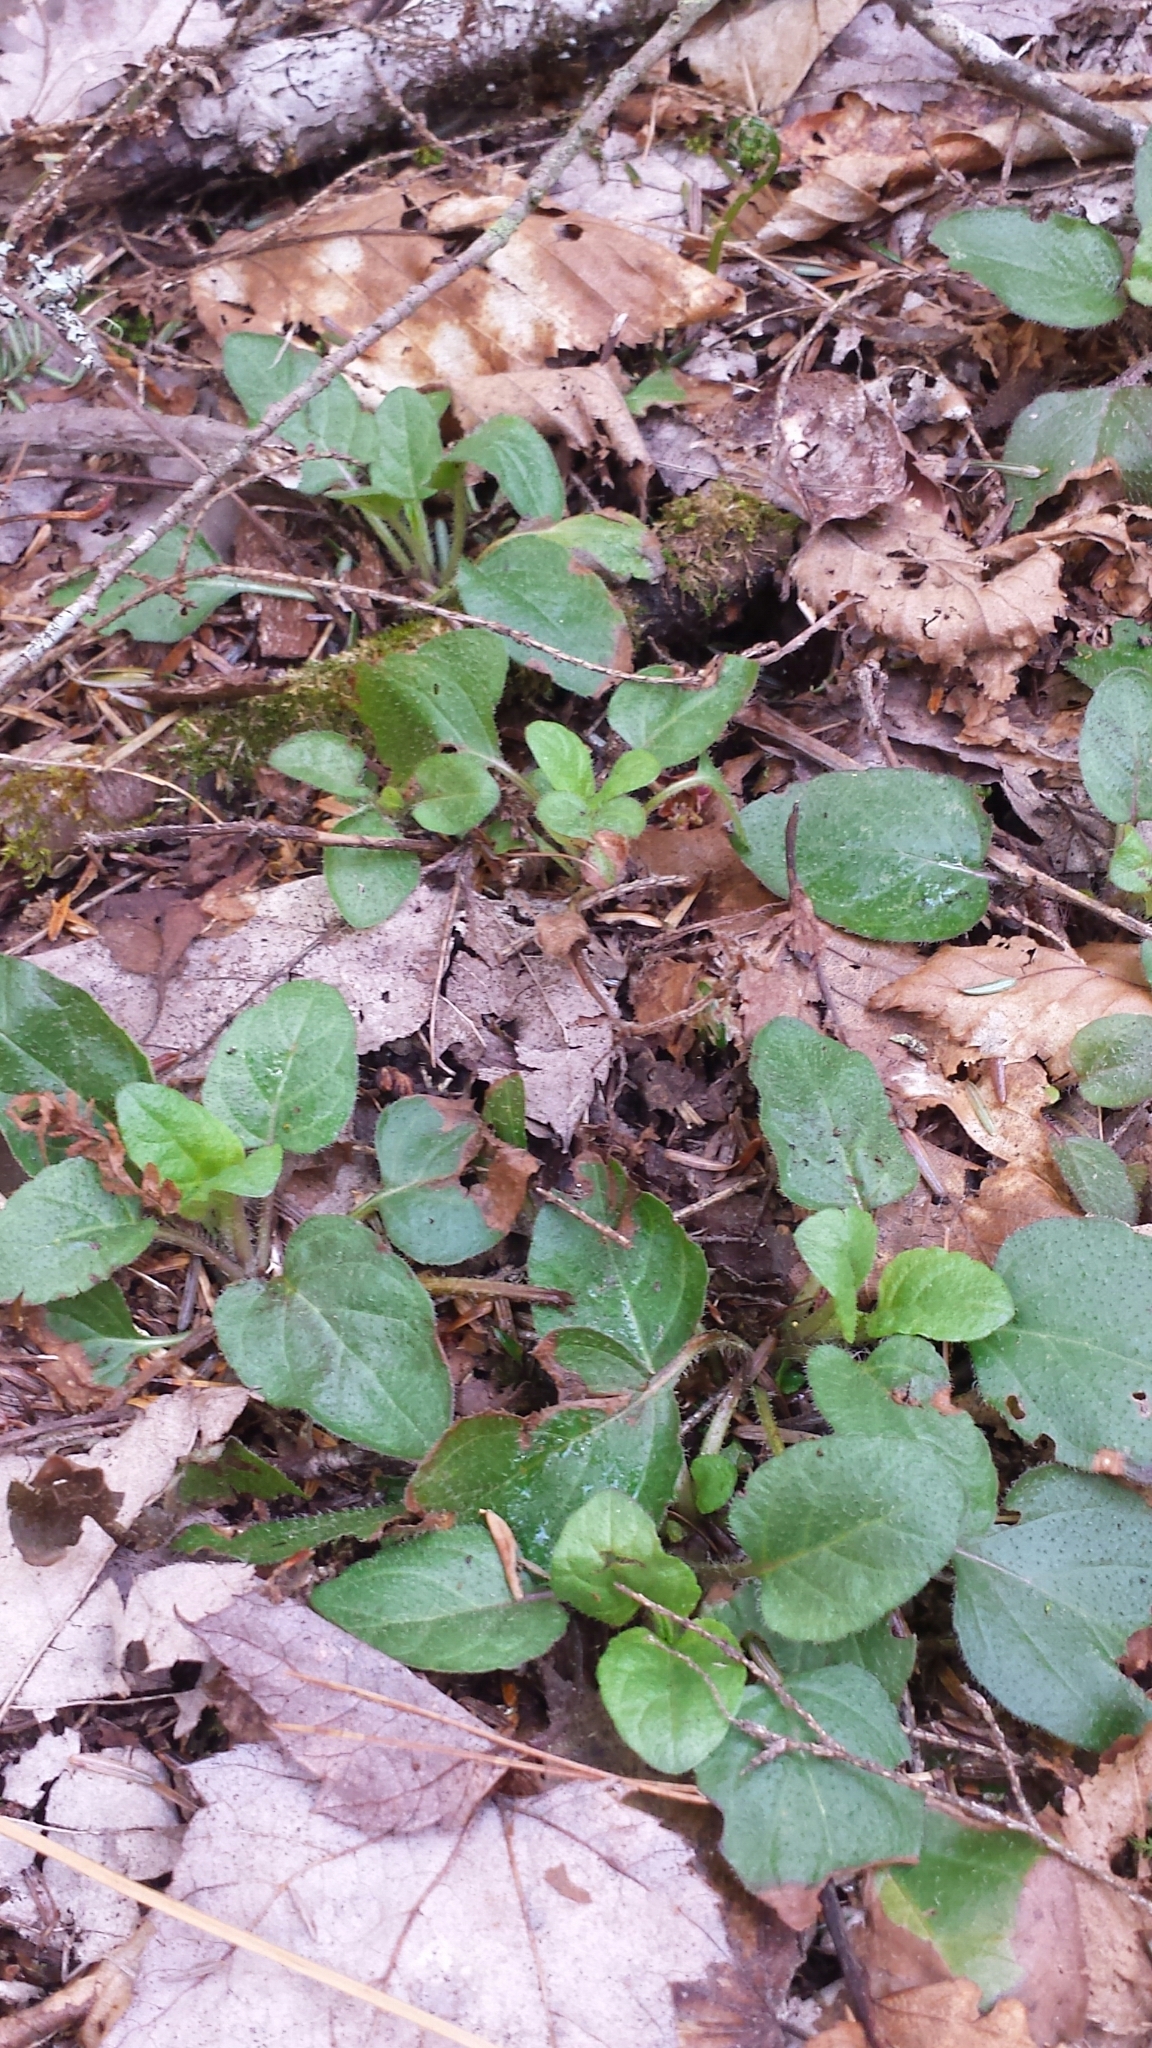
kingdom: Plantae
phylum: Tracheophyta
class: Magnoliopsida
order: Lamiales
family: Lamiaceae
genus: Prunella
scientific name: Prunella vulgaris
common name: Heal-all
